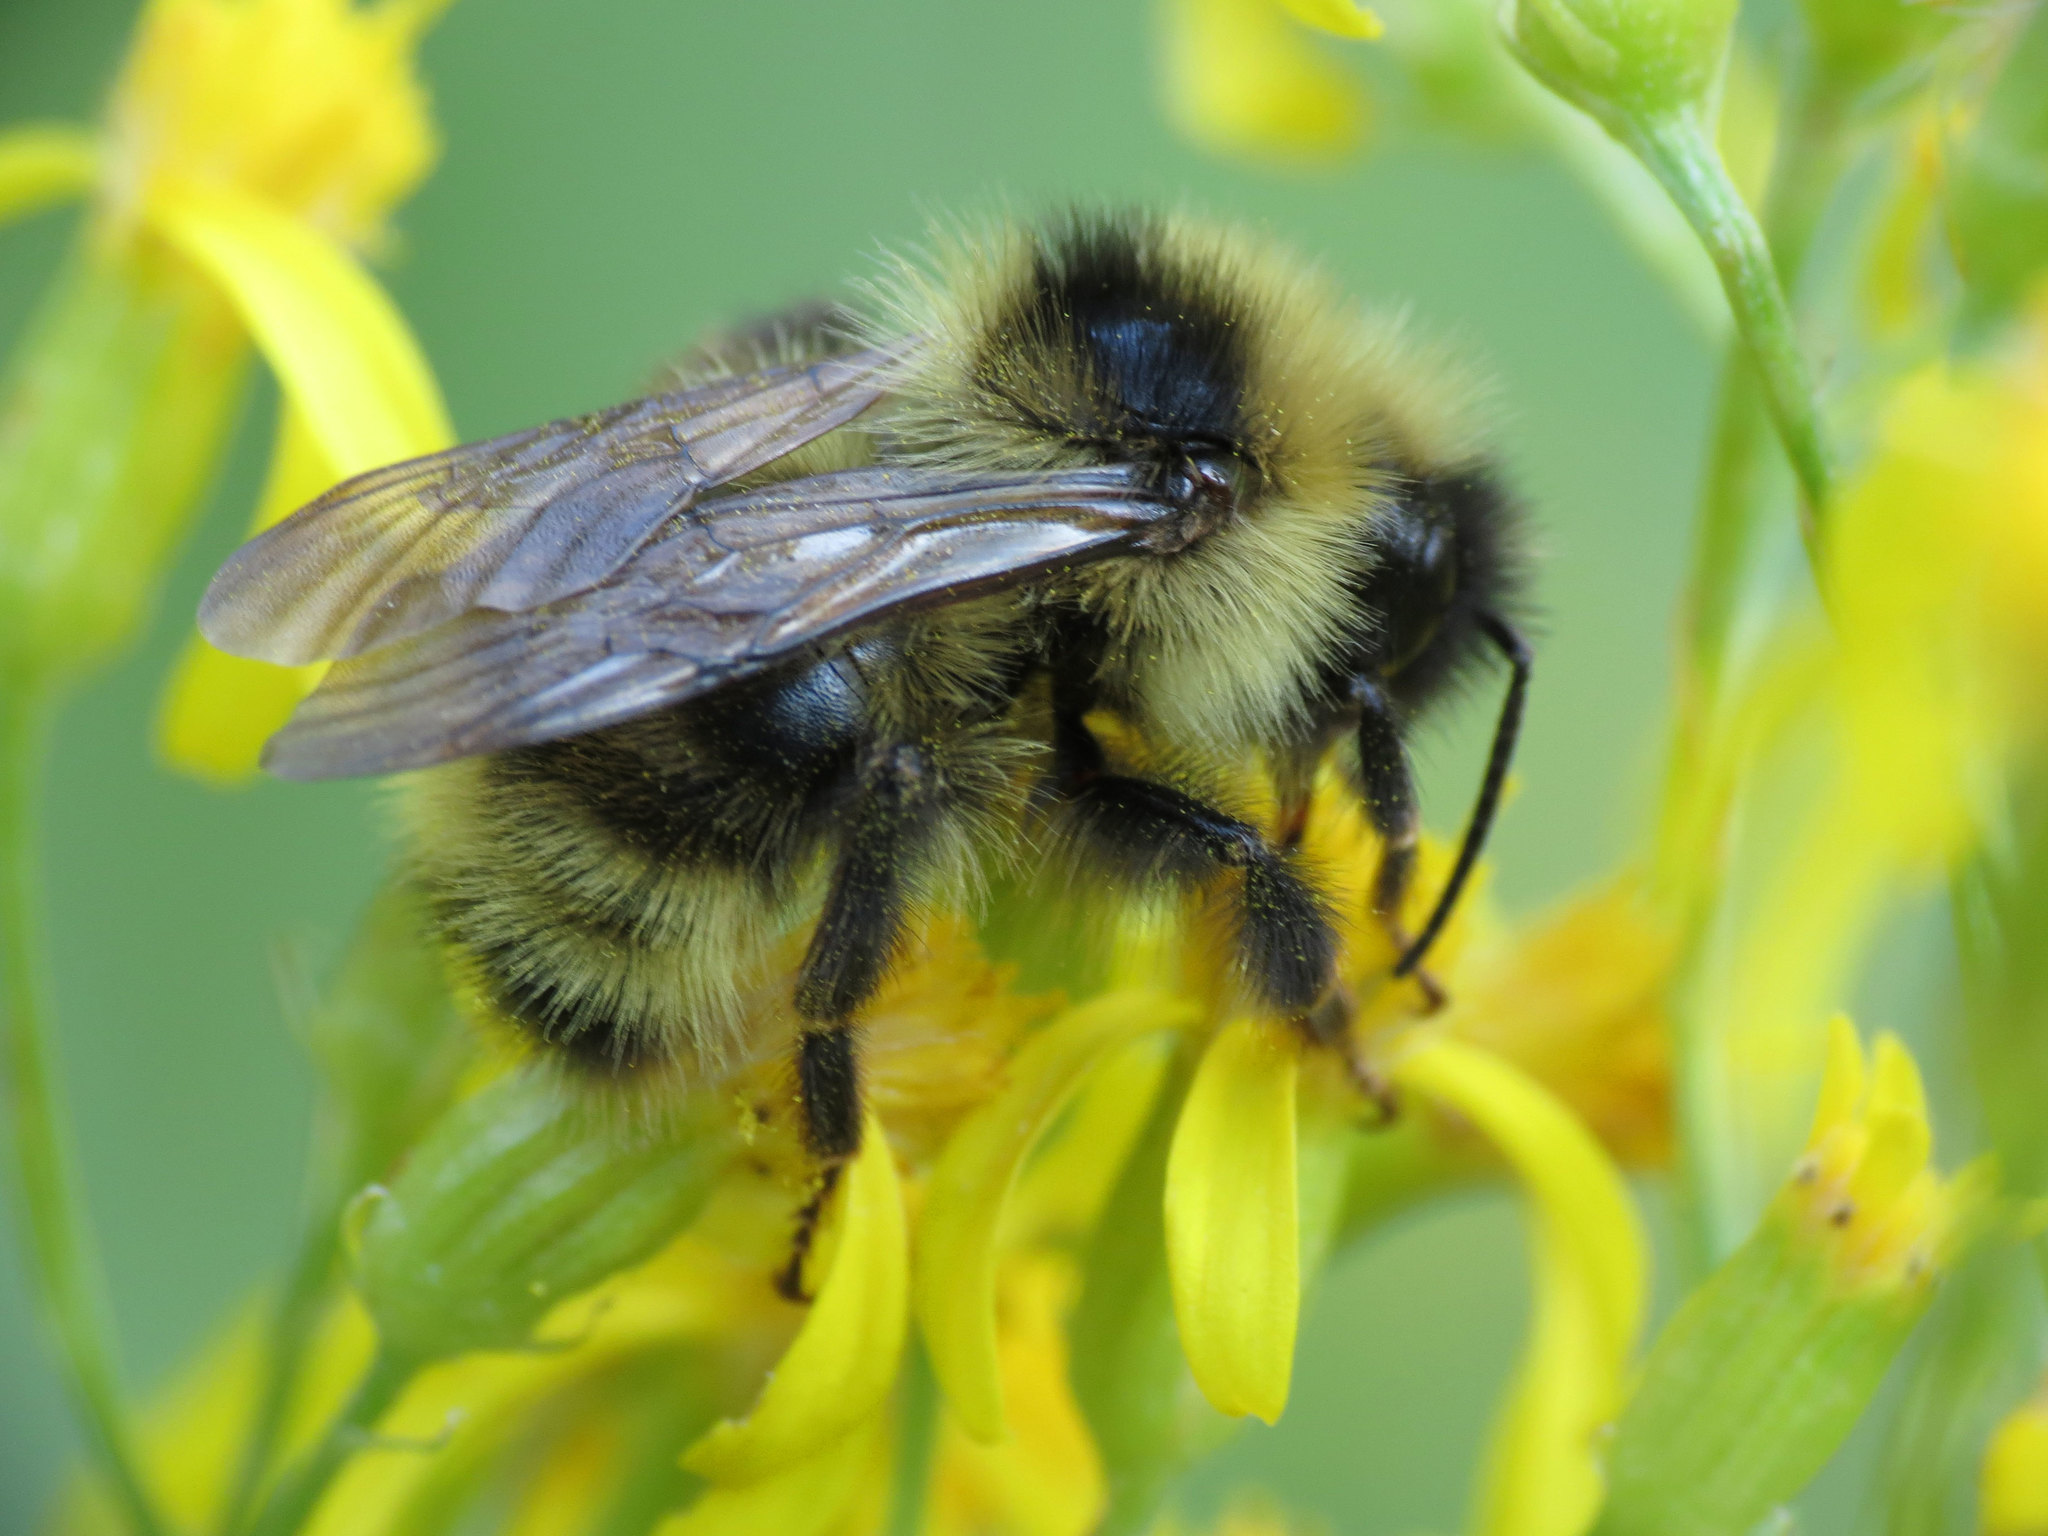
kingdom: Animalia
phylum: Arthropoda
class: Insecta
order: Hymenoptera
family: Apidae
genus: Bombus
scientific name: Bombus flavidus
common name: Fernald cuckoo bumble bee
